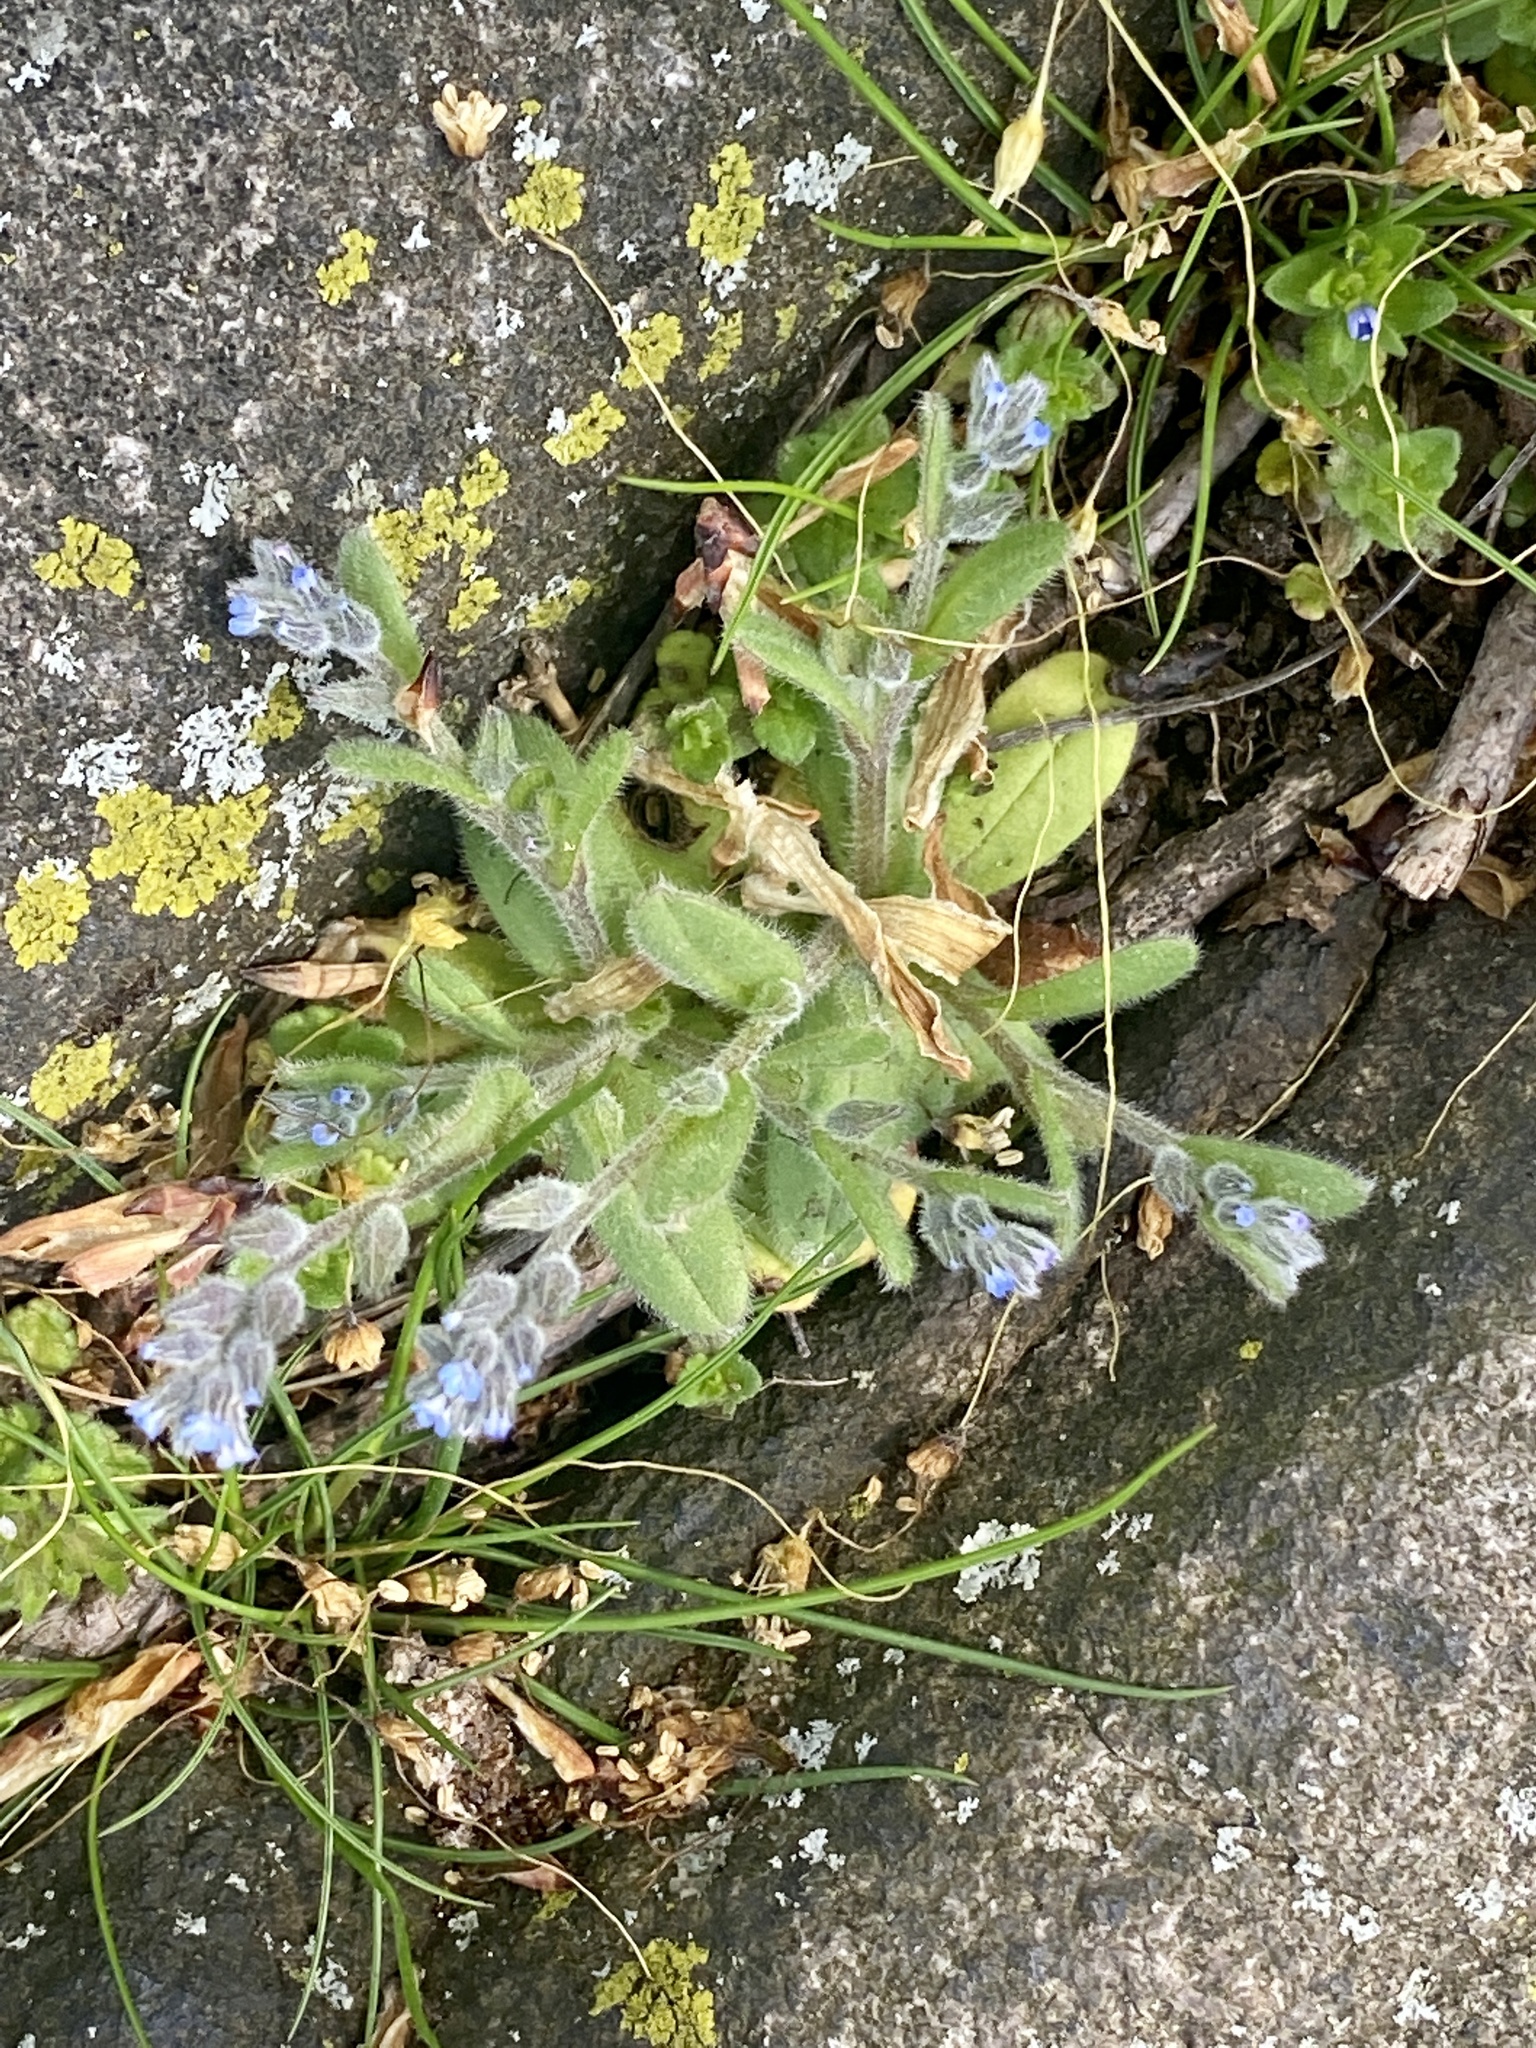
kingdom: Plantae
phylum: Tracheophyta
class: Magnoliopsida
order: Boraginales
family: Boraginaceae
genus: Myosotis
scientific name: Myosotis stricta
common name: Strict forget-me-not
